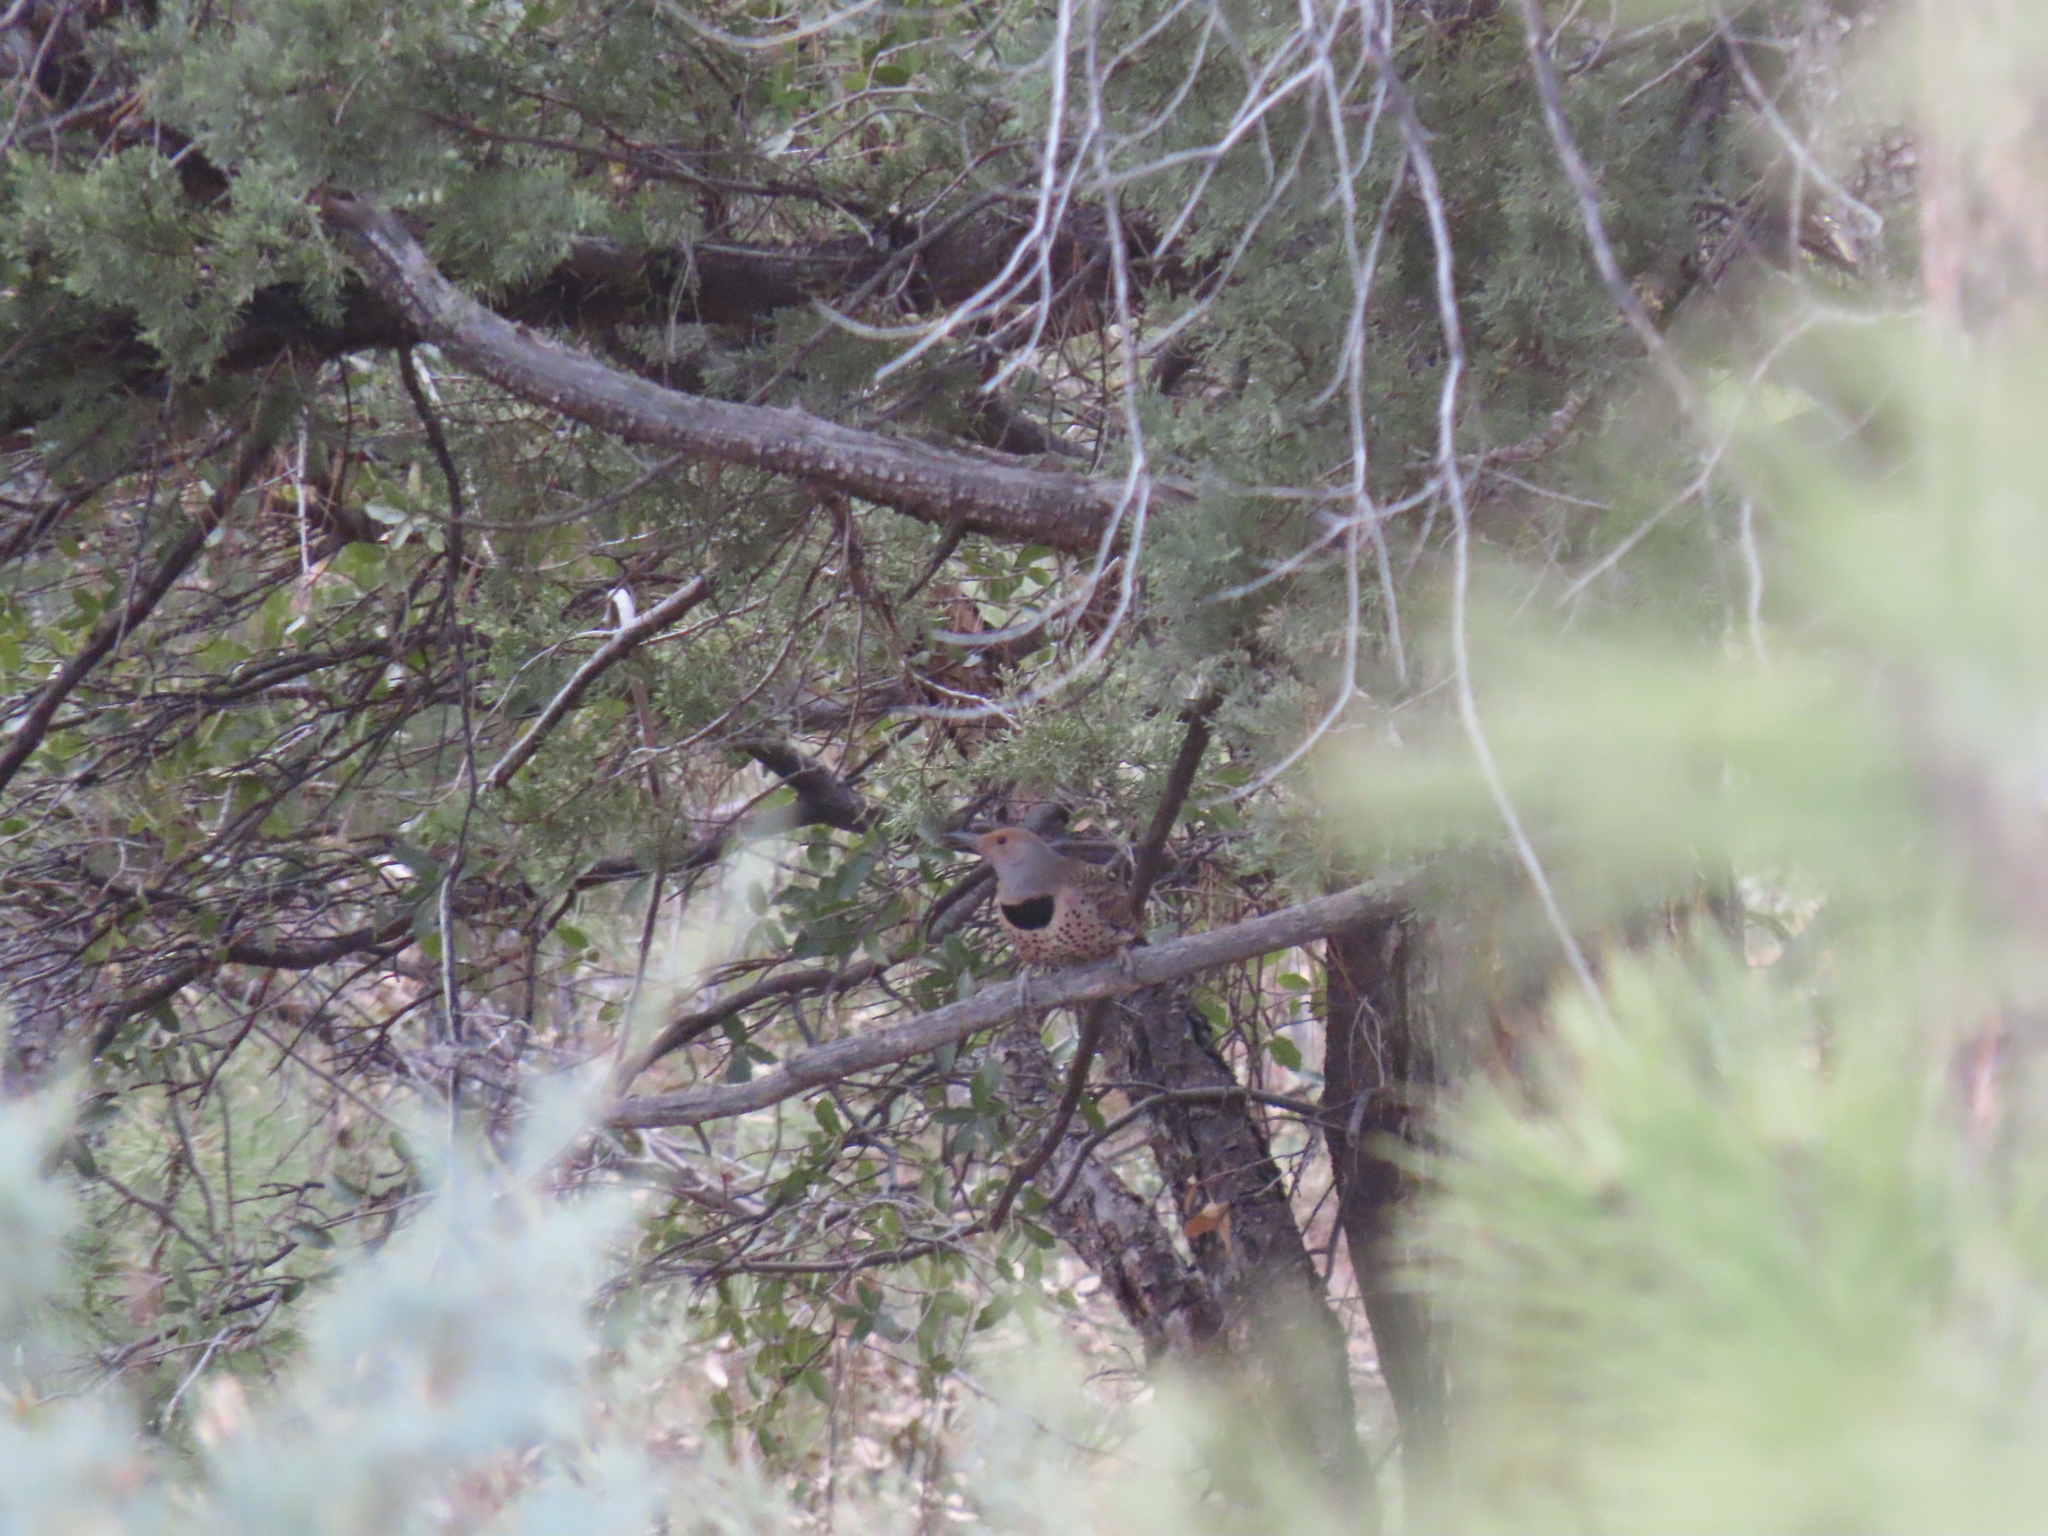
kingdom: Animalia
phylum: Chordata
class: Aves
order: Piciformes
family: Picidae
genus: Colaptes
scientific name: Colaptes chrysoides
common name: Gilded flicker
